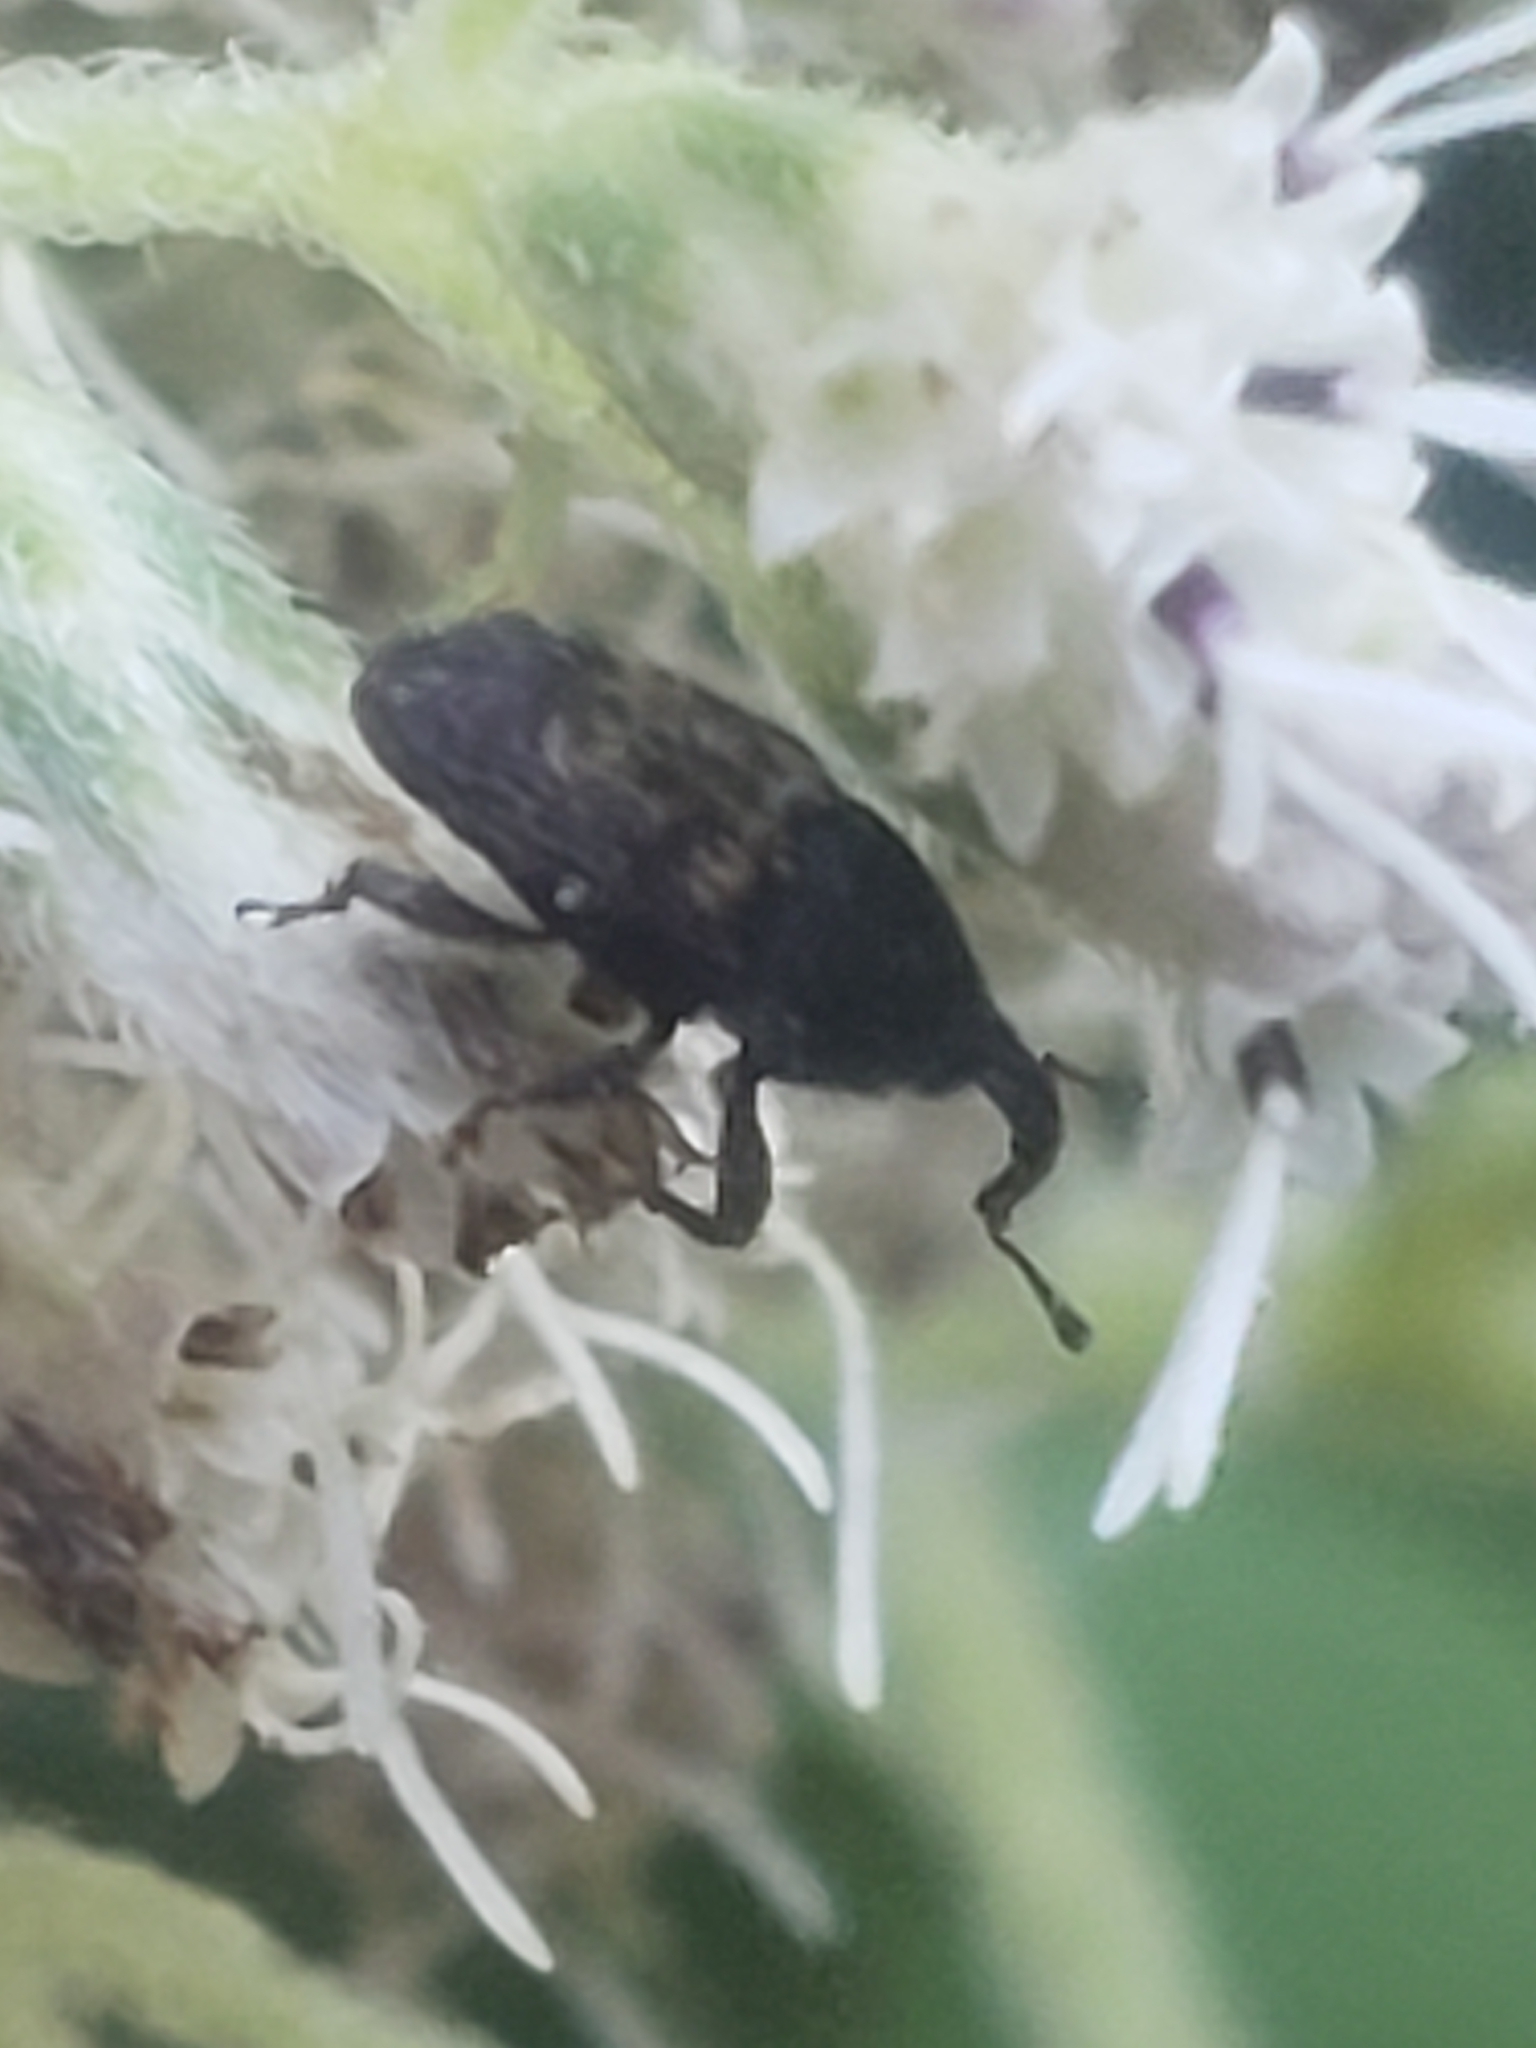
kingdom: Animalia
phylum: Arthropoda
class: Insecta
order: Coleoptera
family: Curculionidae
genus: Glyptobaris
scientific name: Glyptobaris lecontei
